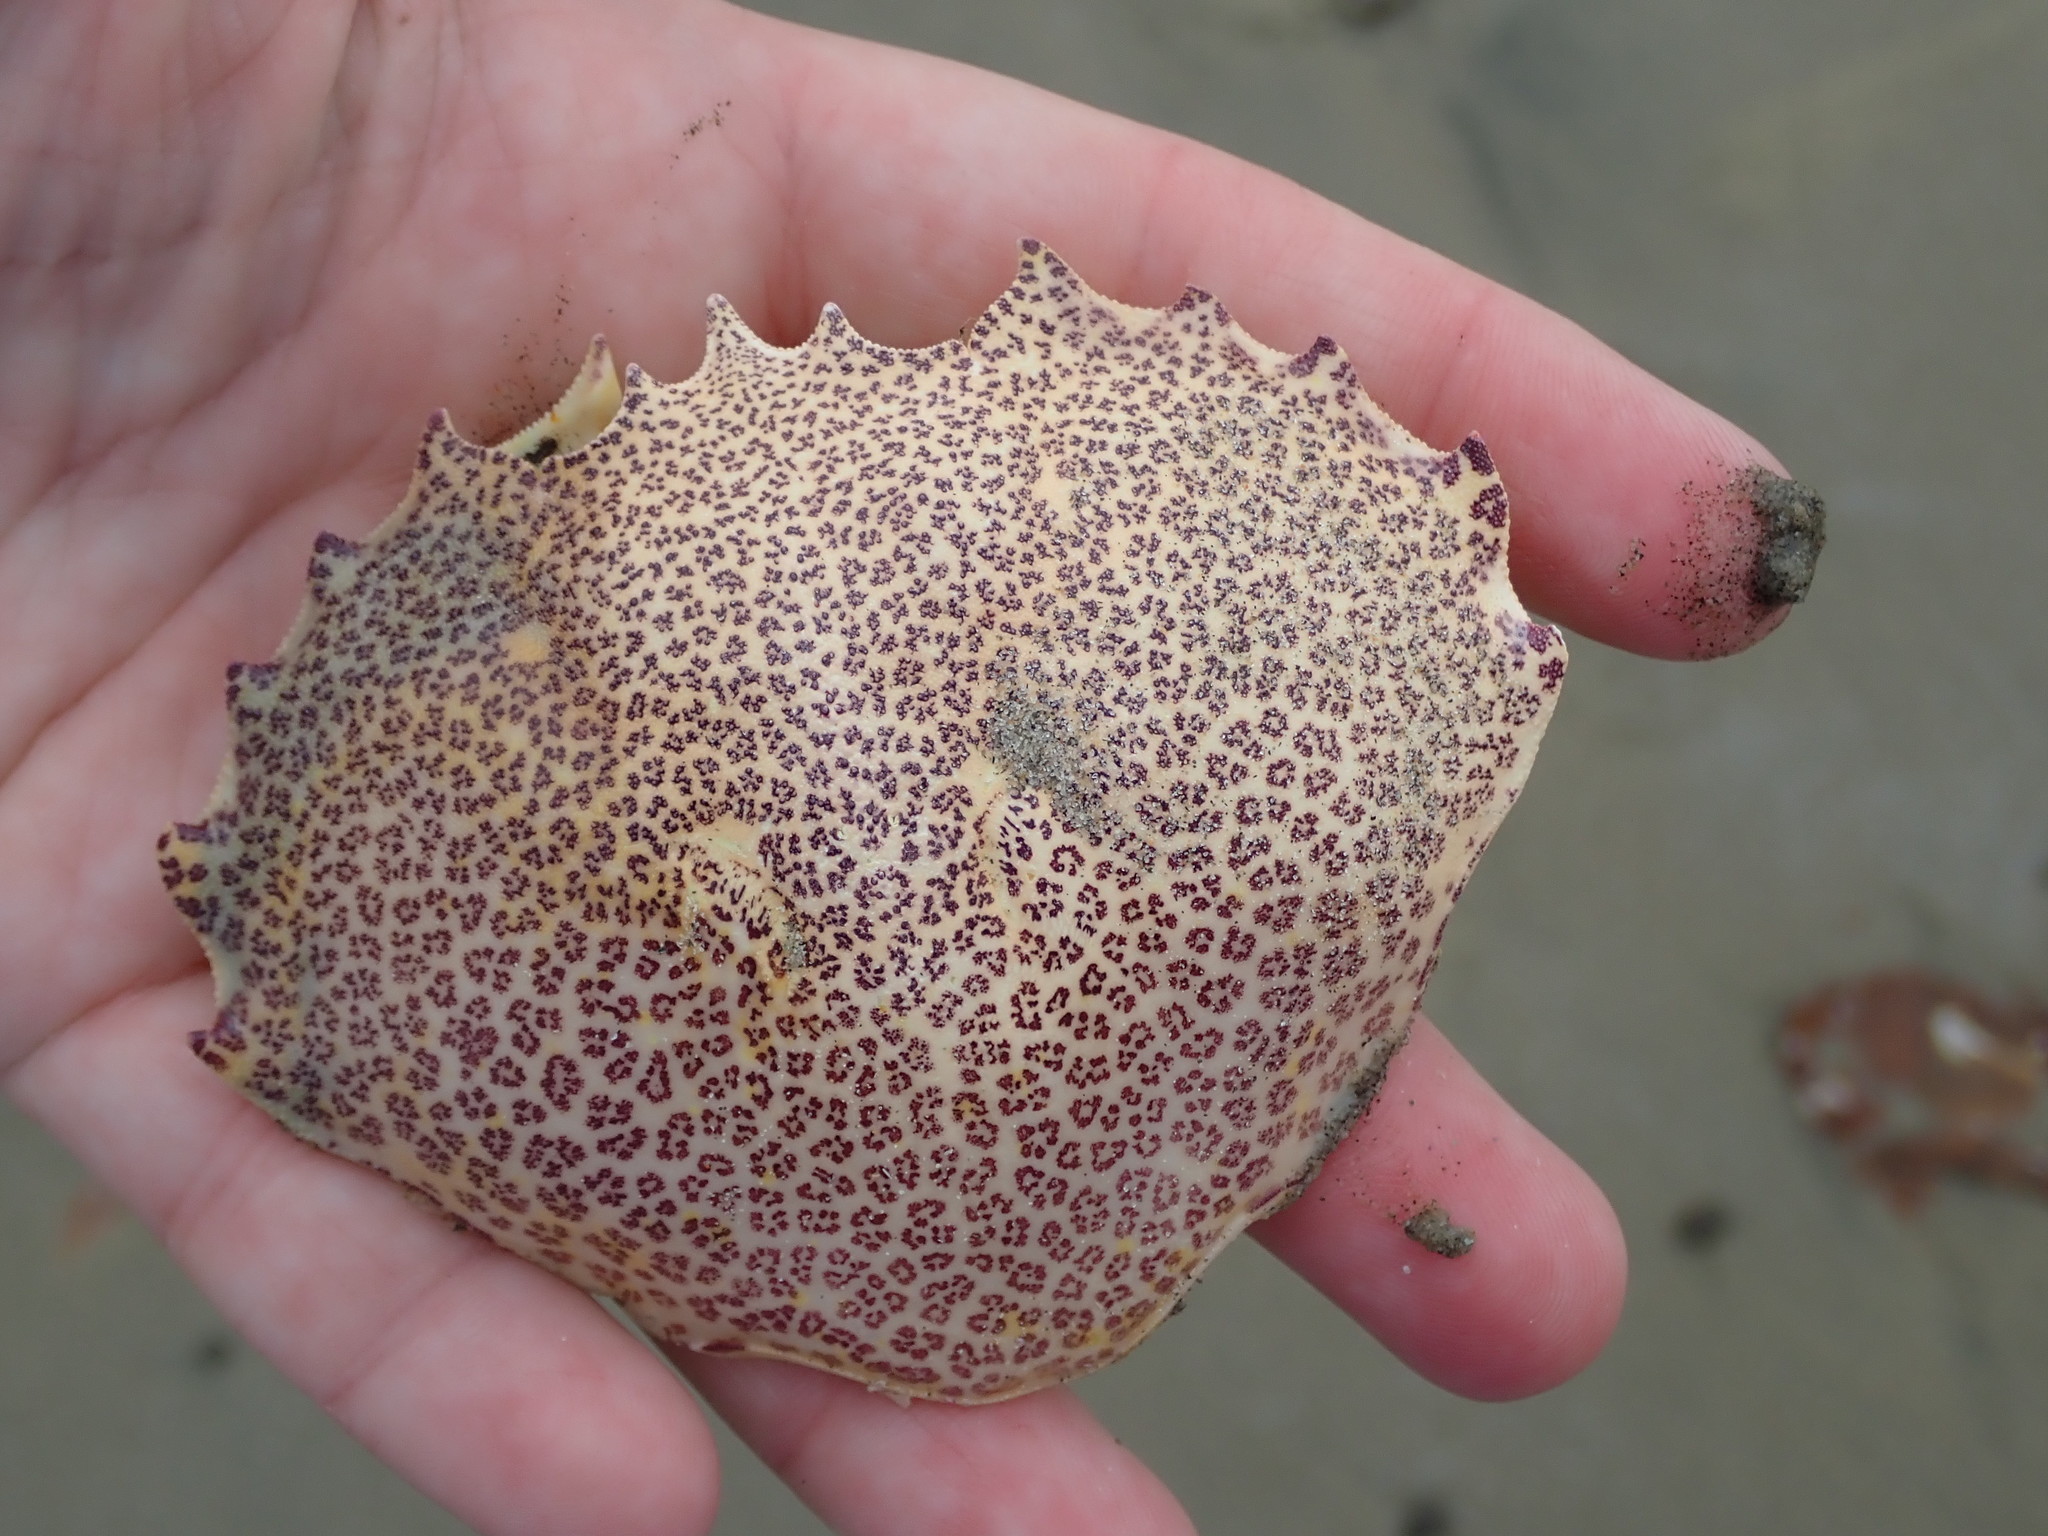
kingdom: Animalia
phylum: Arthropoda
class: Malacostraca
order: Decapoda
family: Ovalipidae
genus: Ovalipes
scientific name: Ovalipes ocellatus
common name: Lady crab
